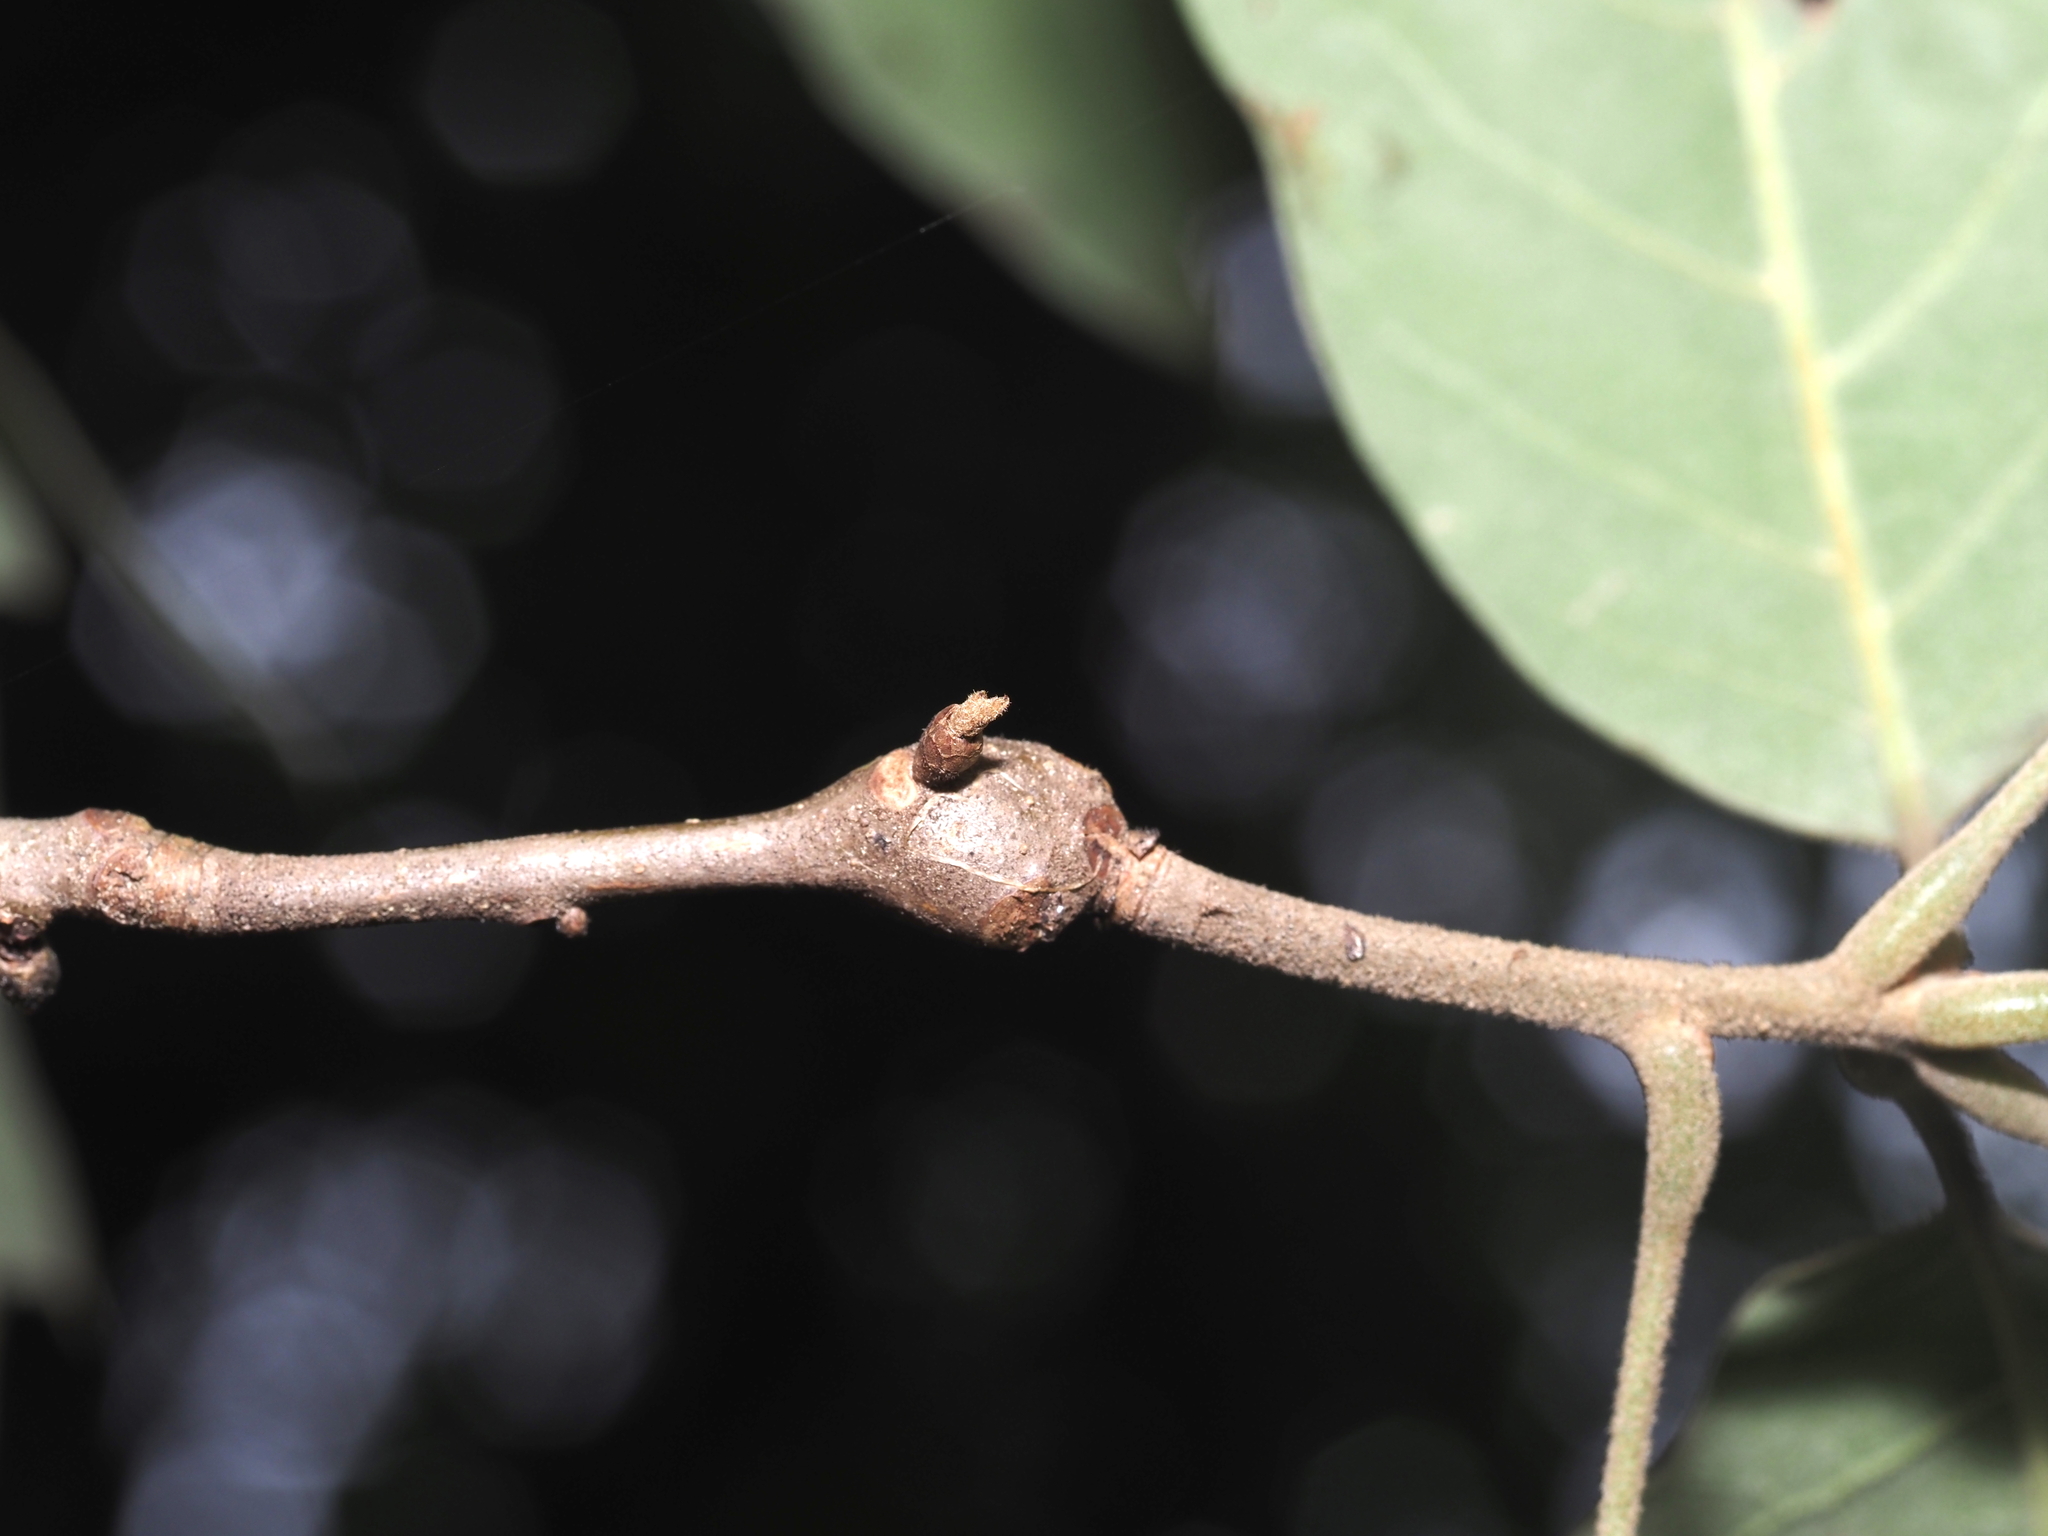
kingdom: Animalia
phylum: Arthropoda
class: Insecta
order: Hymenoptera
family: Cynipidae
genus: Zapatella
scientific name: Zapatella quercusphellos
